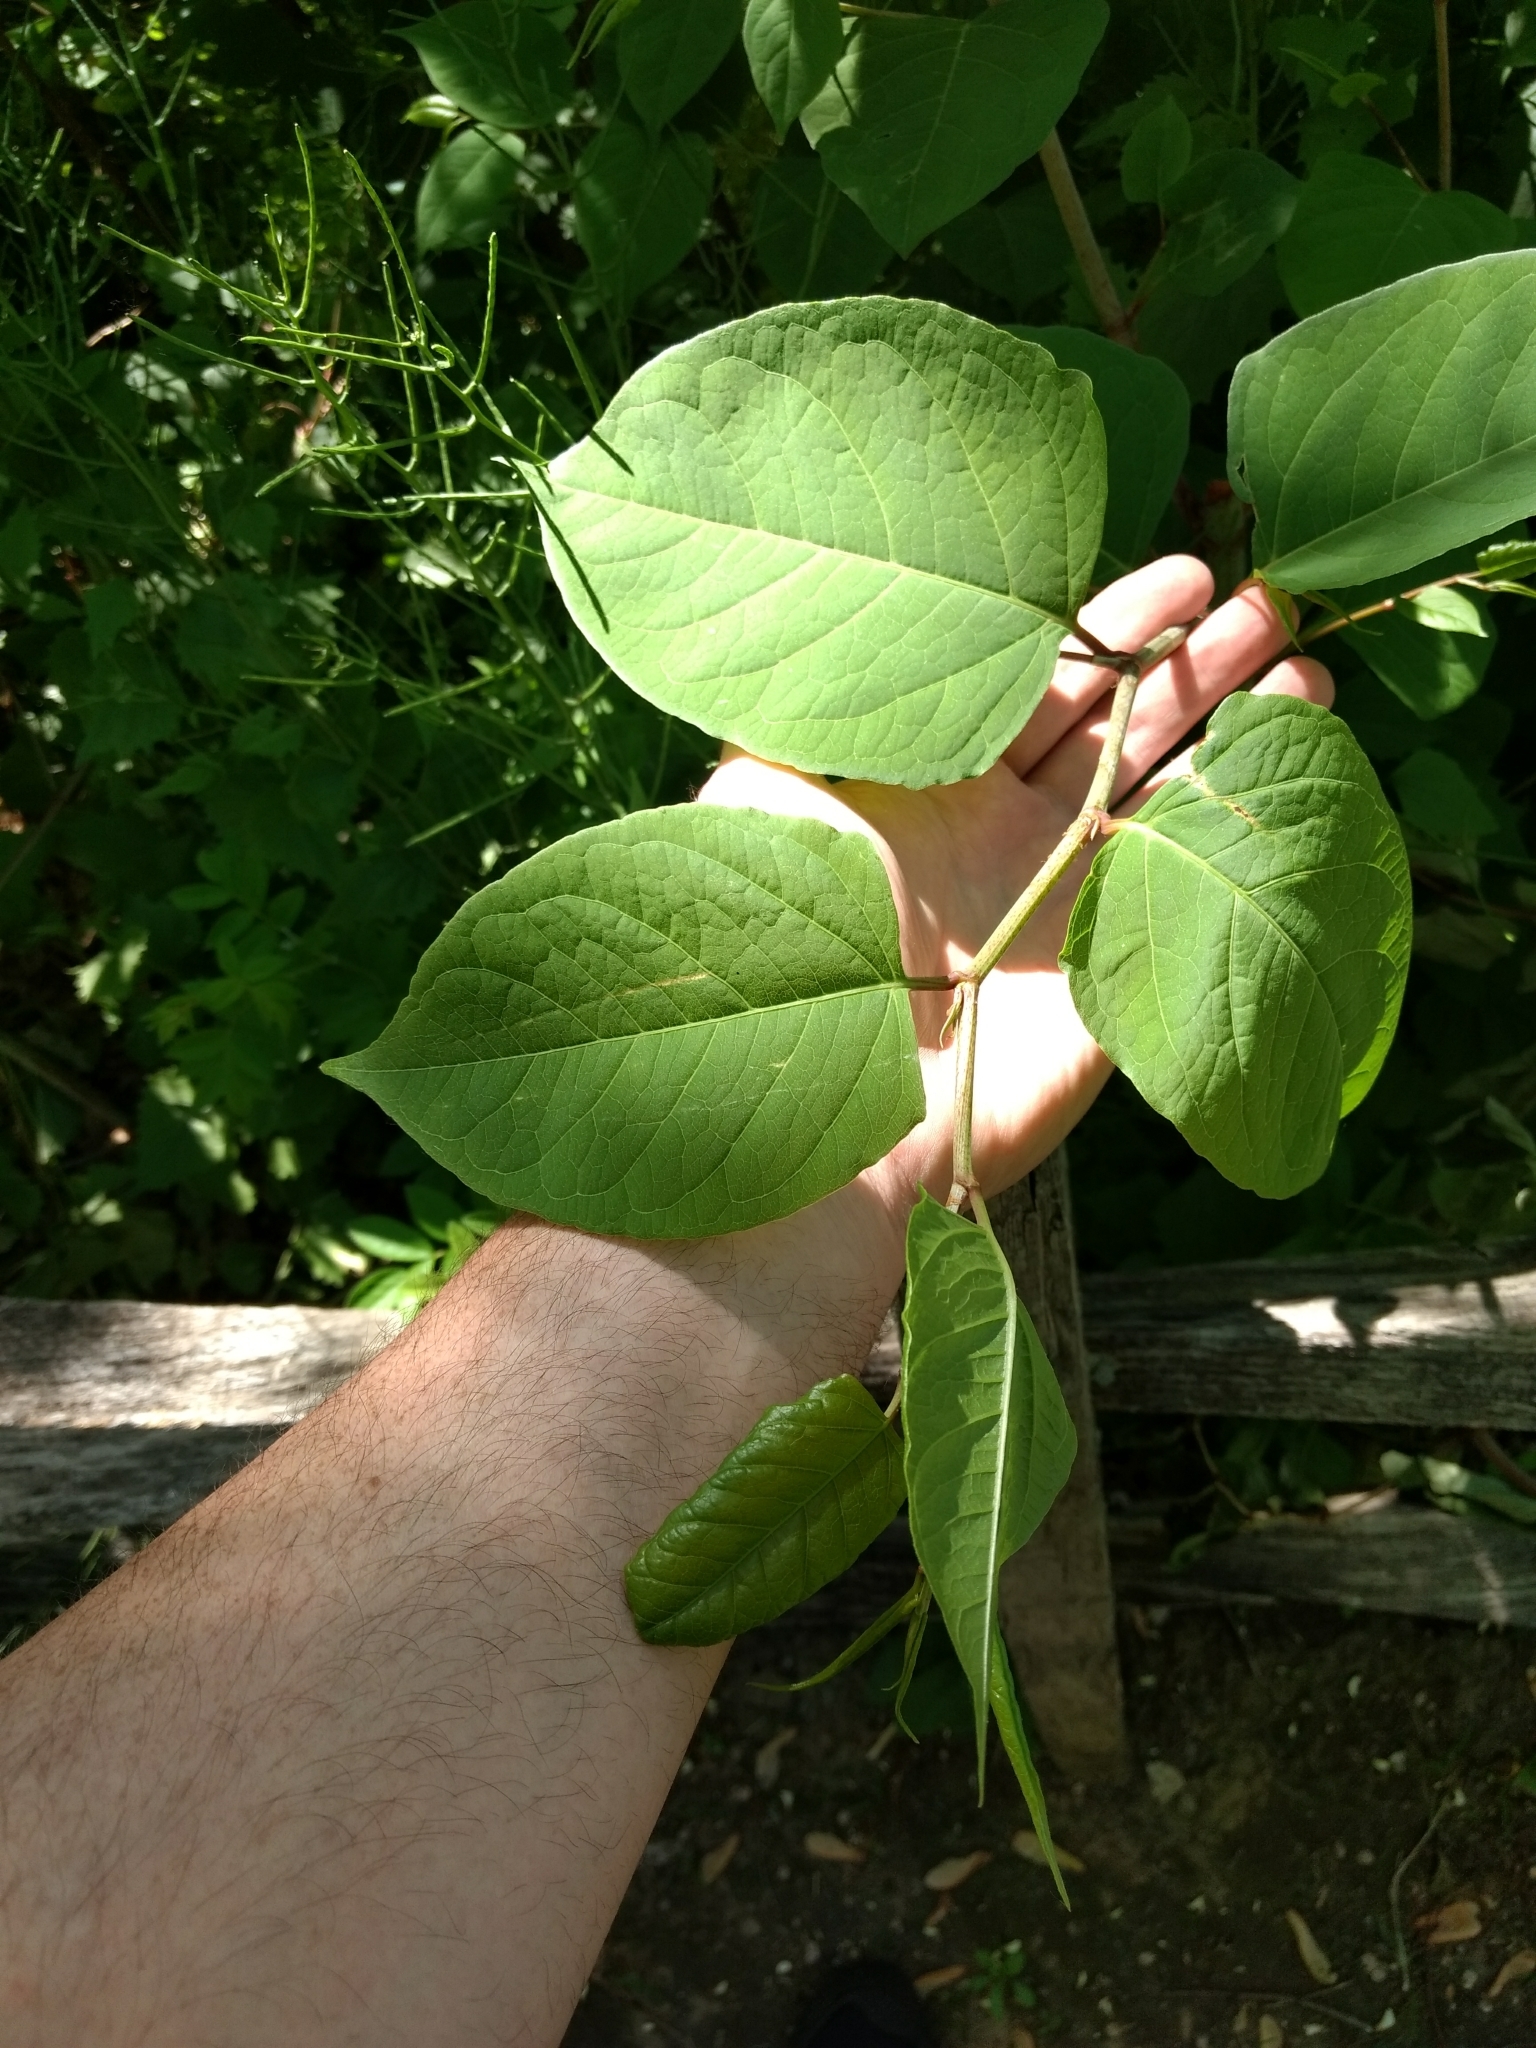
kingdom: Plantae
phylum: Tracheophyta
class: Magnoliopsida
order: Caryophyllales
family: Polygonaceae
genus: Reynoutria
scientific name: Reynoutria japonica
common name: Japanese knotweed
